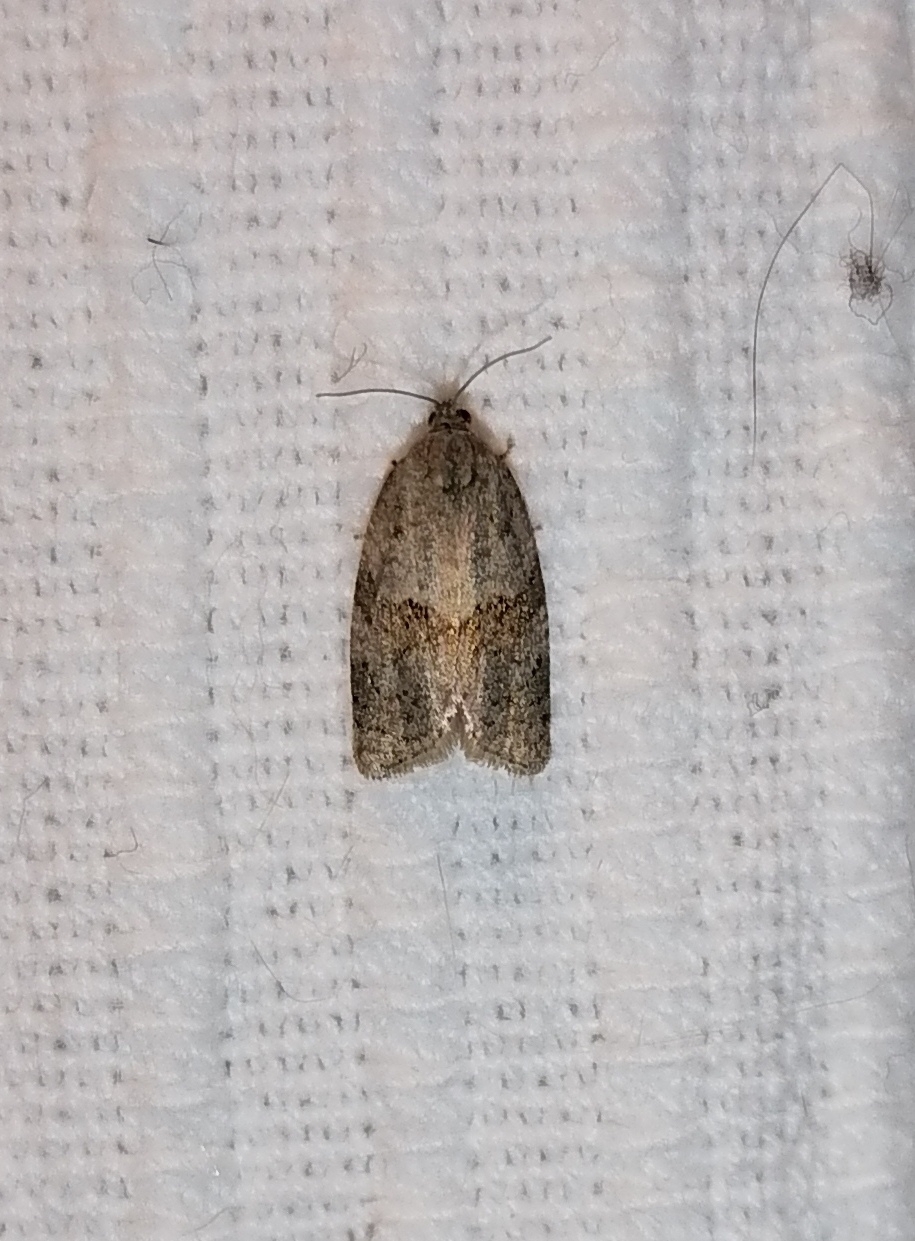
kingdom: Animalia
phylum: Arthropoda
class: Insecta
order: Lepidoptera
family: Tortricidae
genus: Syndemis
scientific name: Syndemis musculana
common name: Dark-barred twist
